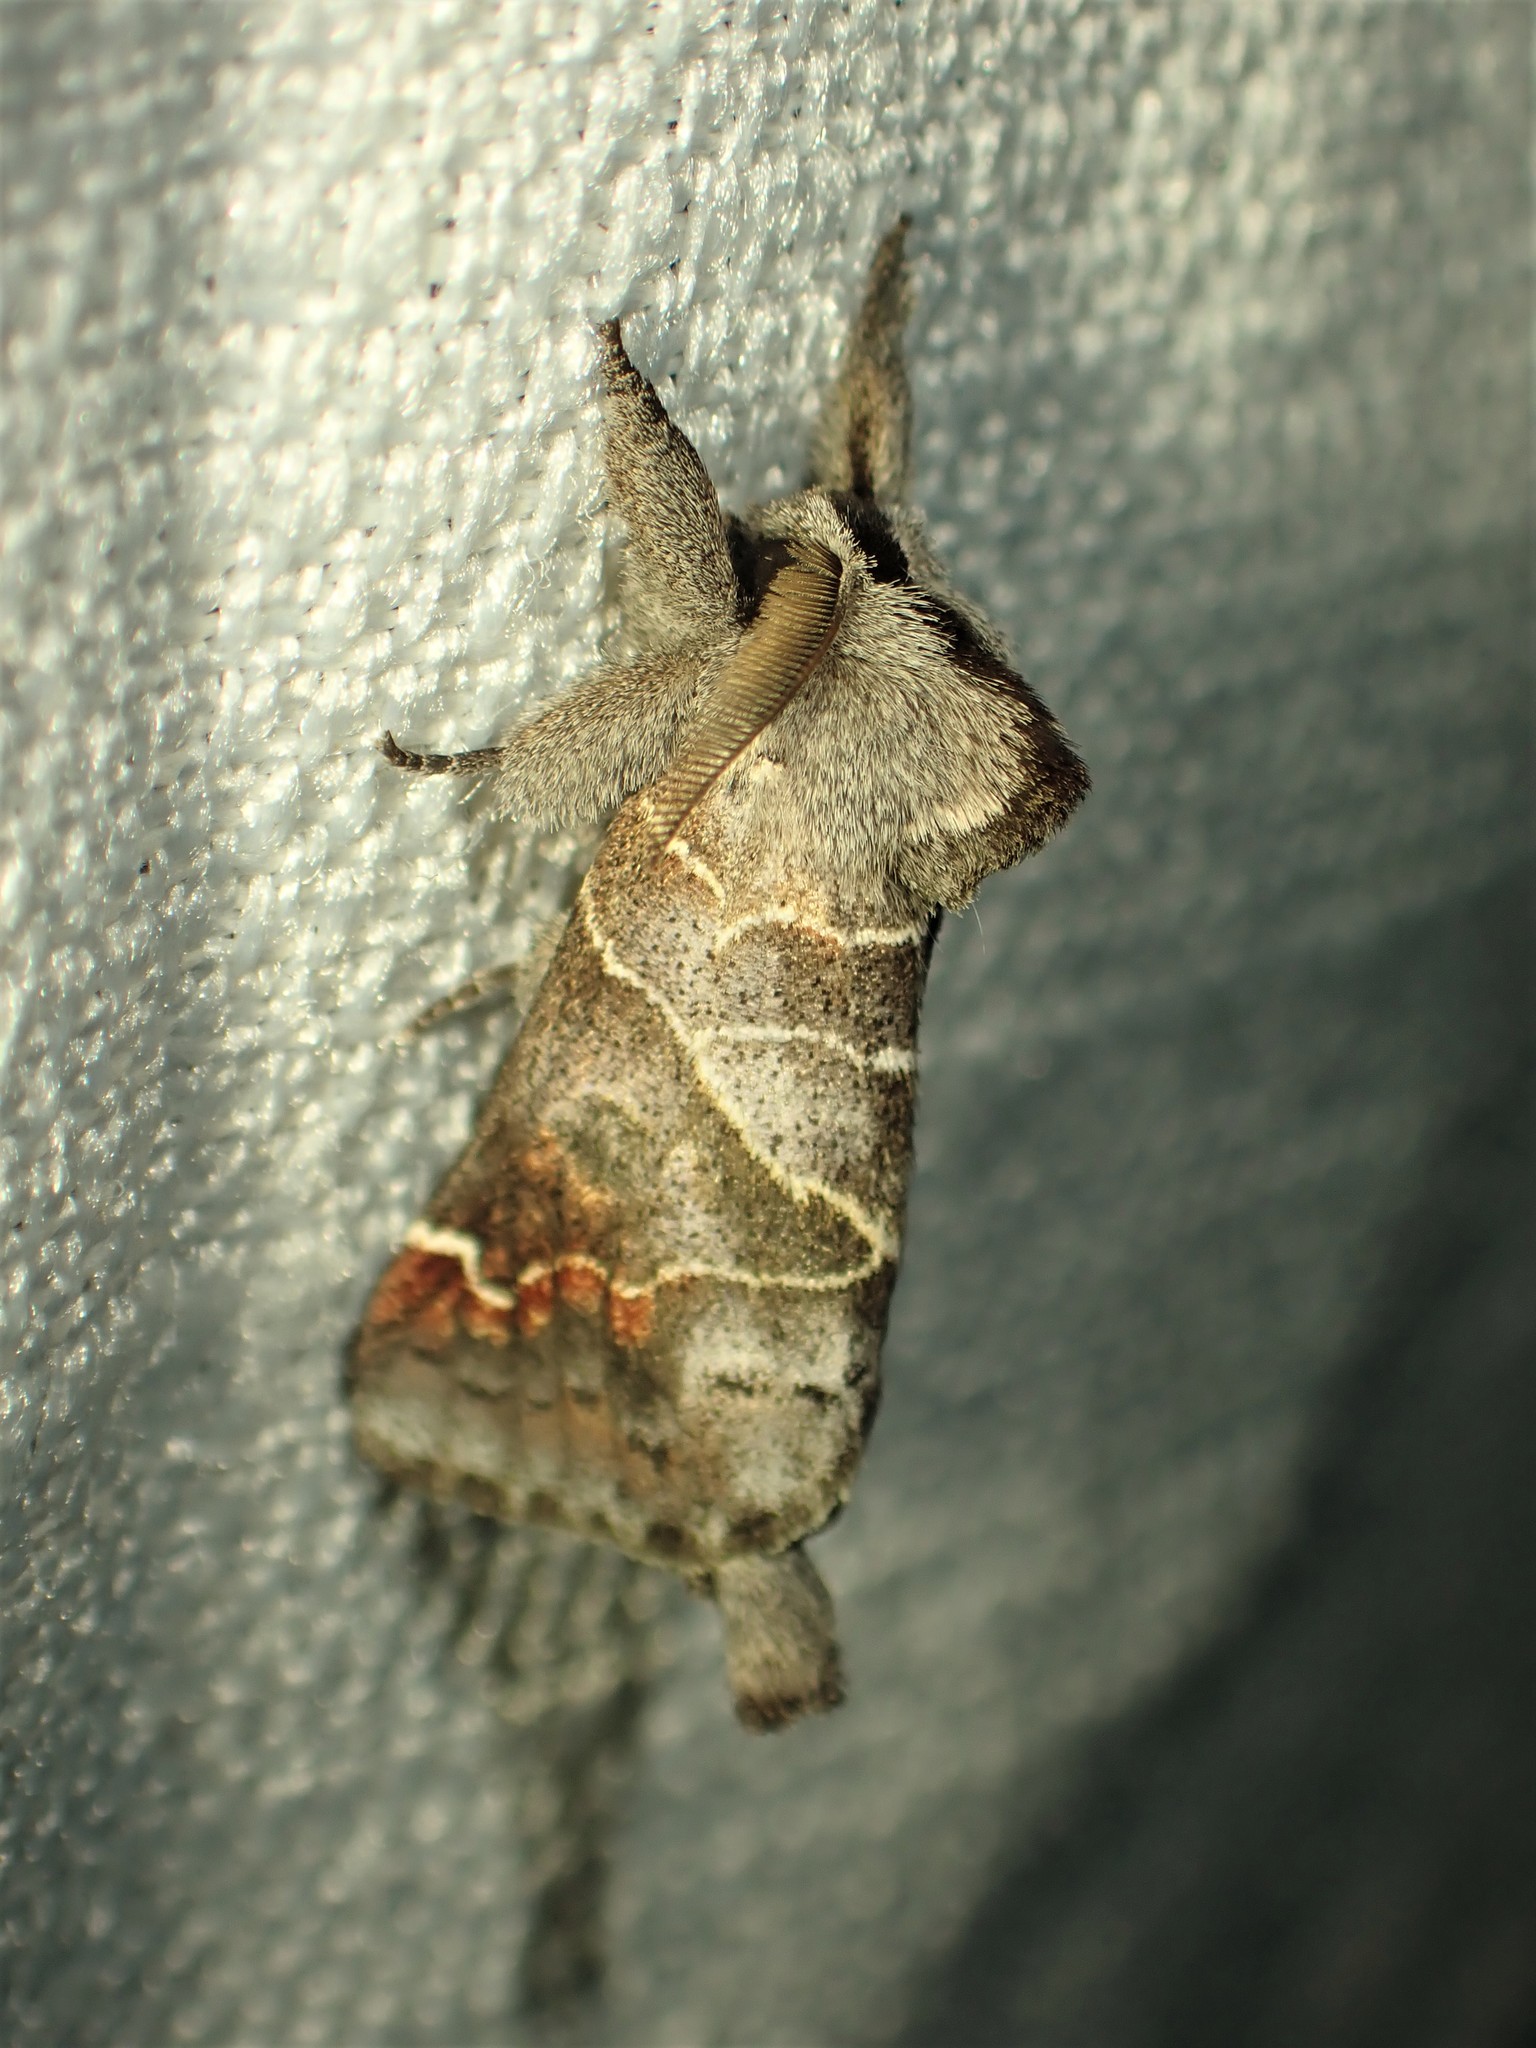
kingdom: Animalia
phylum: Arthropoda
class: Insecta
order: Lepidoptera
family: Notodontidae
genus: Clostera
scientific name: Clostera apicalis
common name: Apical prominent
